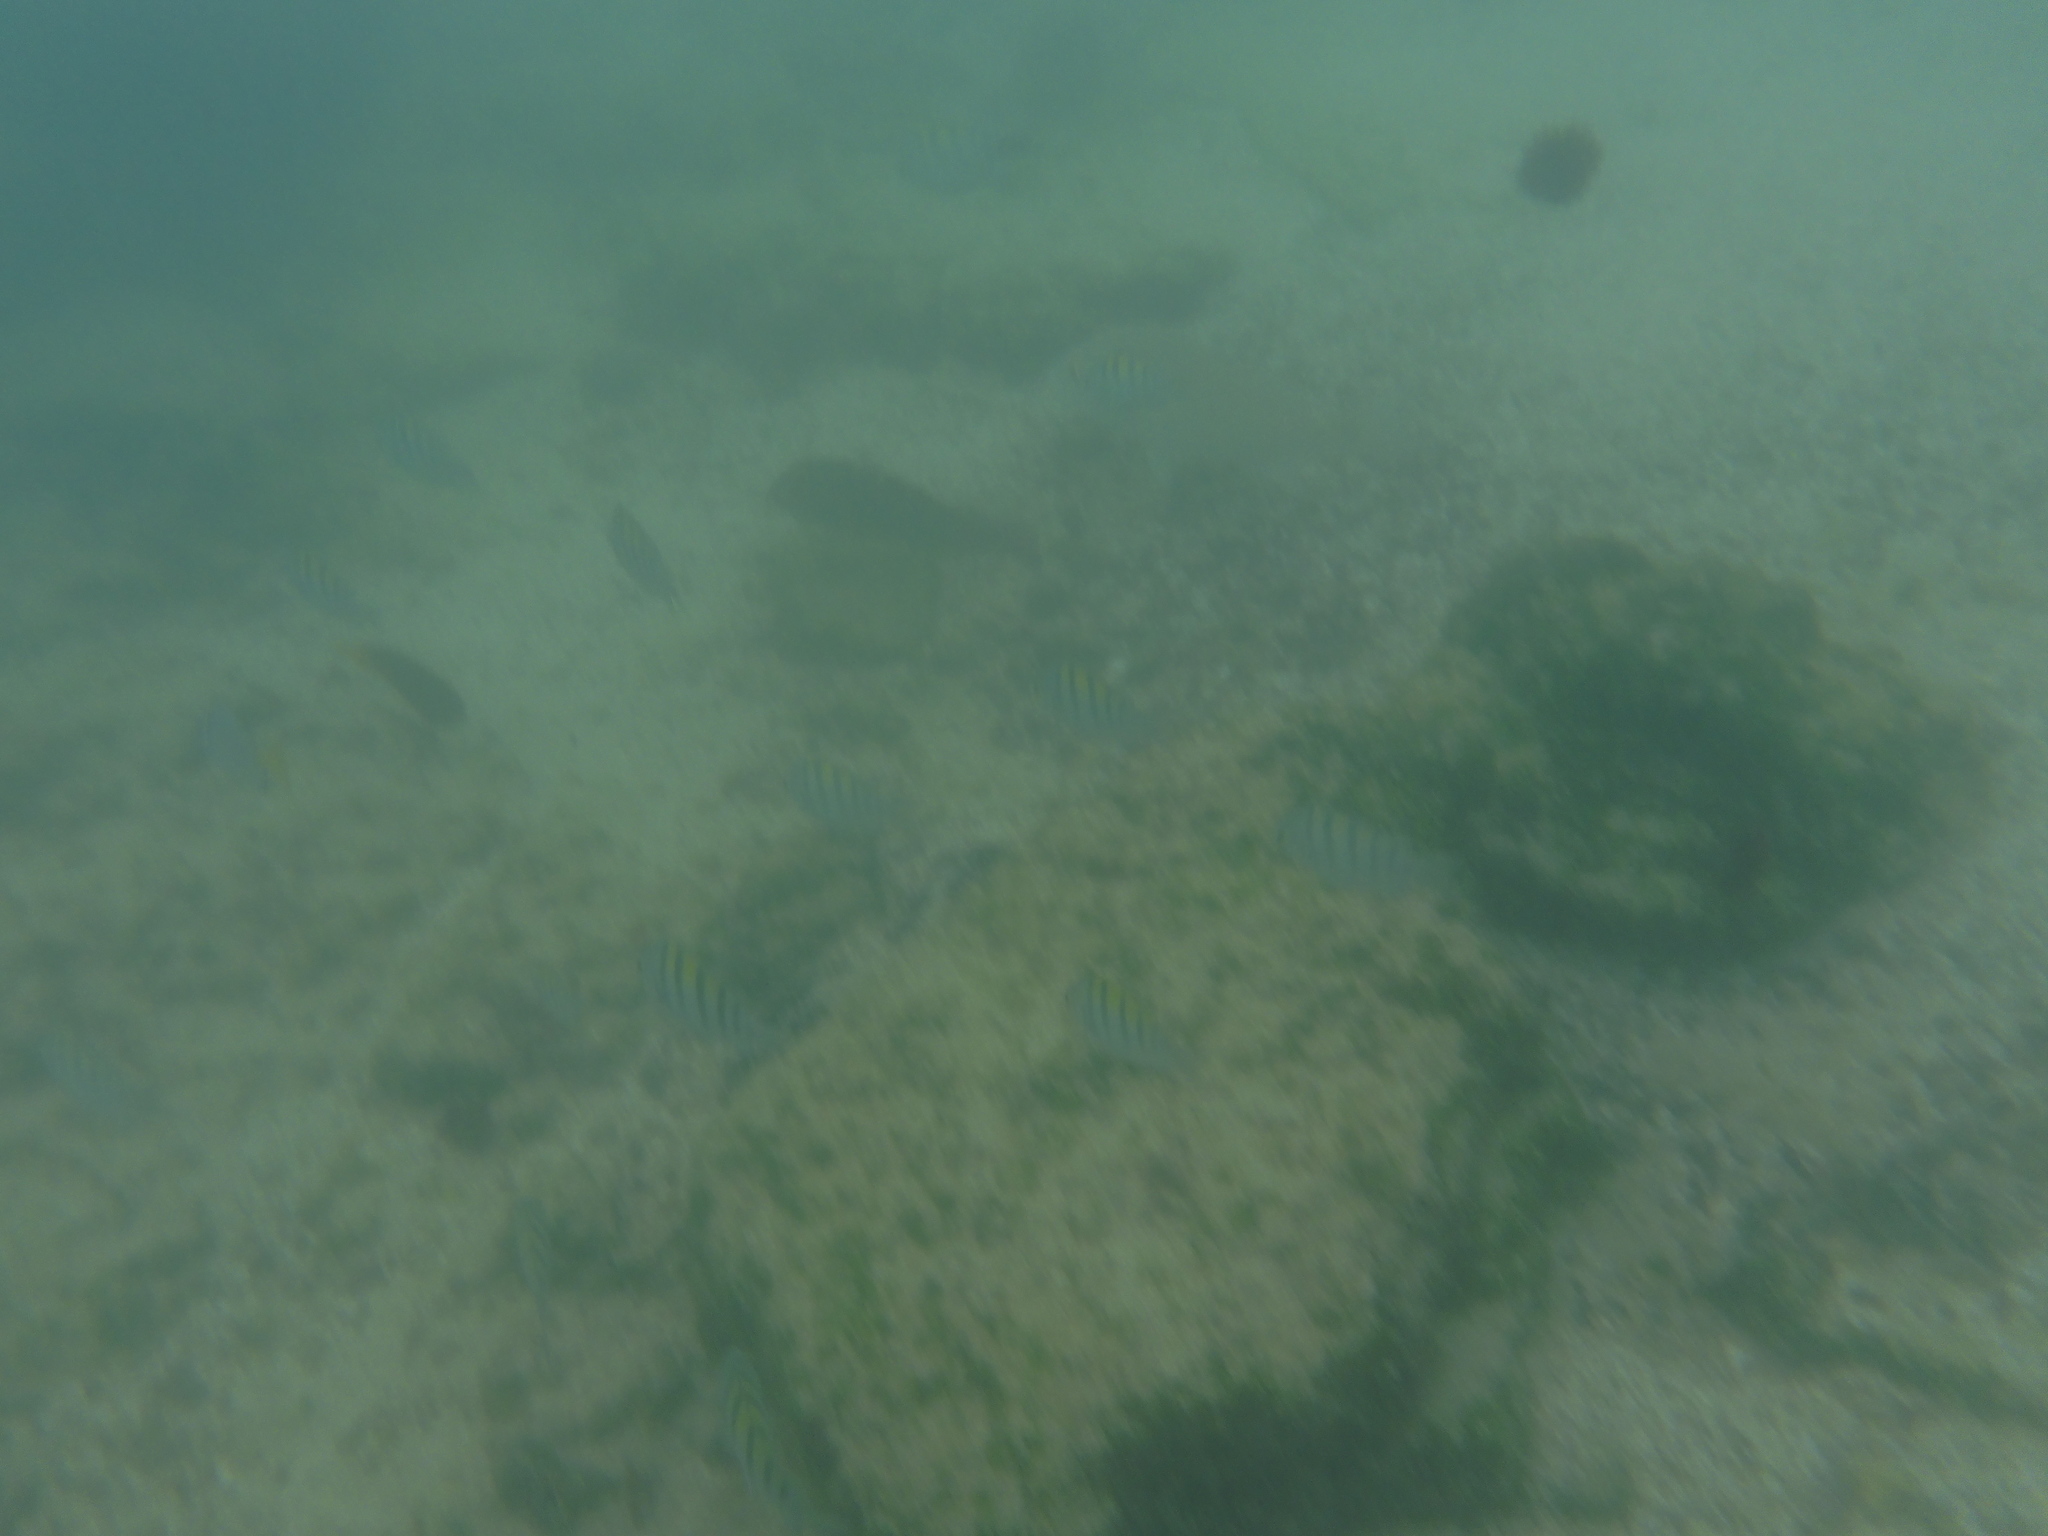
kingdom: Animalia
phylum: Chordata
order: Perciformes
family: Pomacentridae
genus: Abudefduf
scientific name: Abudefduf troschelii
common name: Panamic sergeant major
